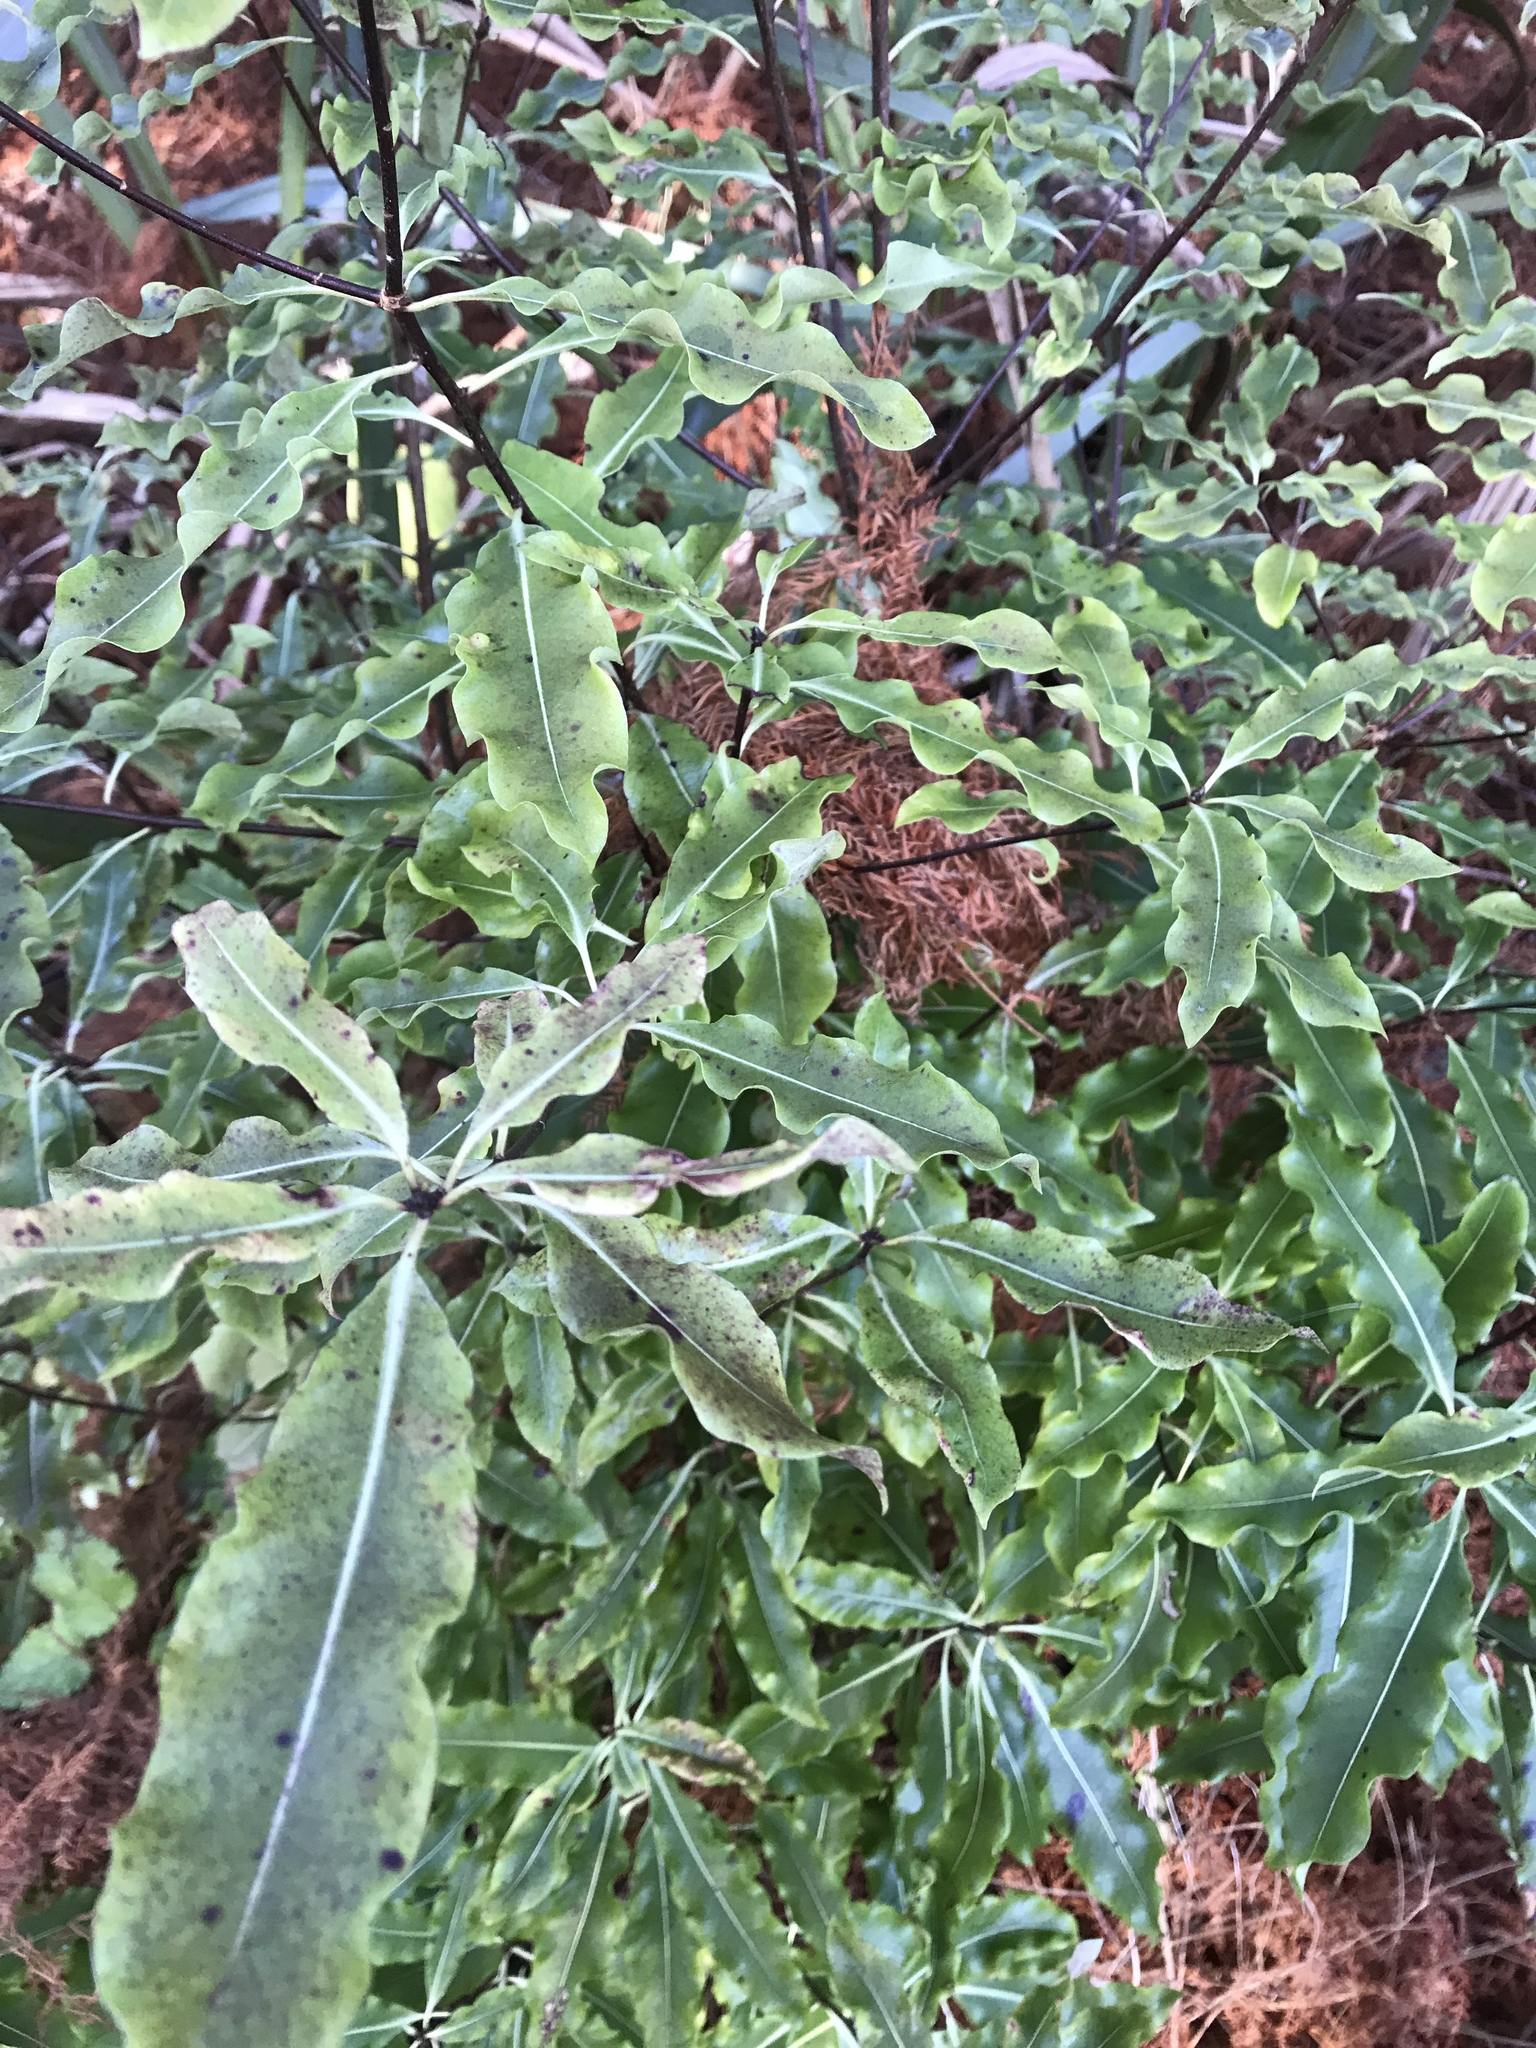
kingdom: Plantae
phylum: Tracheophyta
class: Magnoliopsida
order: Apiales
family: Pittosporaceae
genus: Pittosporum
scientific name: Pittosporum eugenioides
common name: Lemonwood
